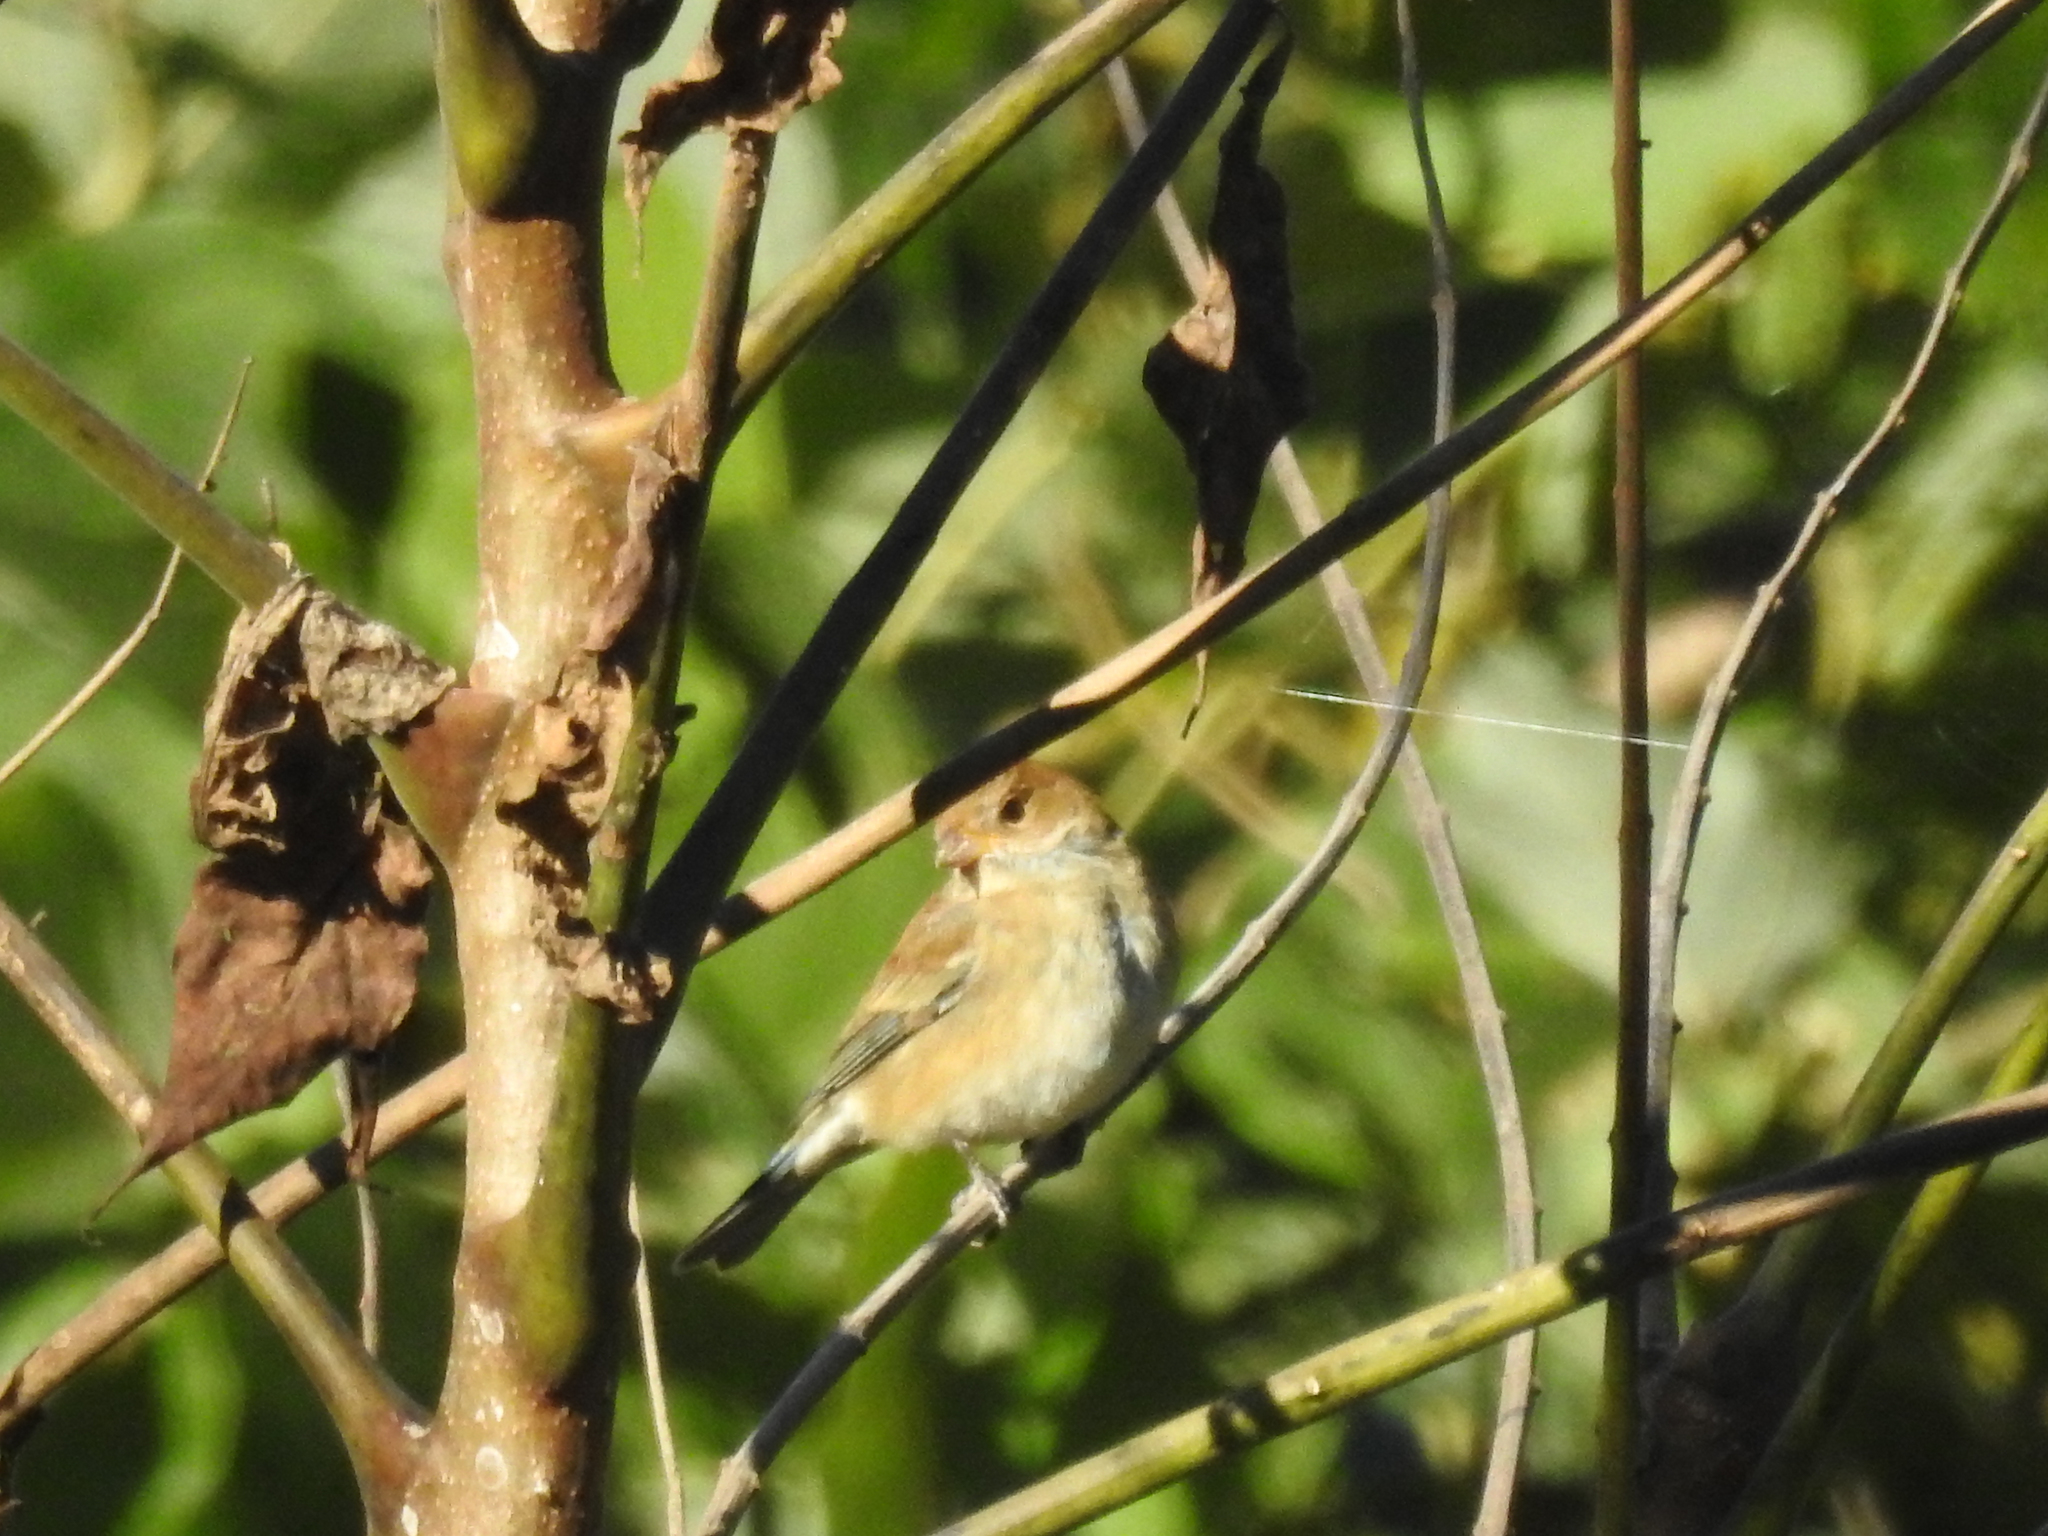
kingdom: Animalia
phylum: Chordata
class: Aves
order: Passeriformes
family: Cardinalidae
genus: Passerina
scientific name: Passerina cyanea
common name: Indigo bunting
